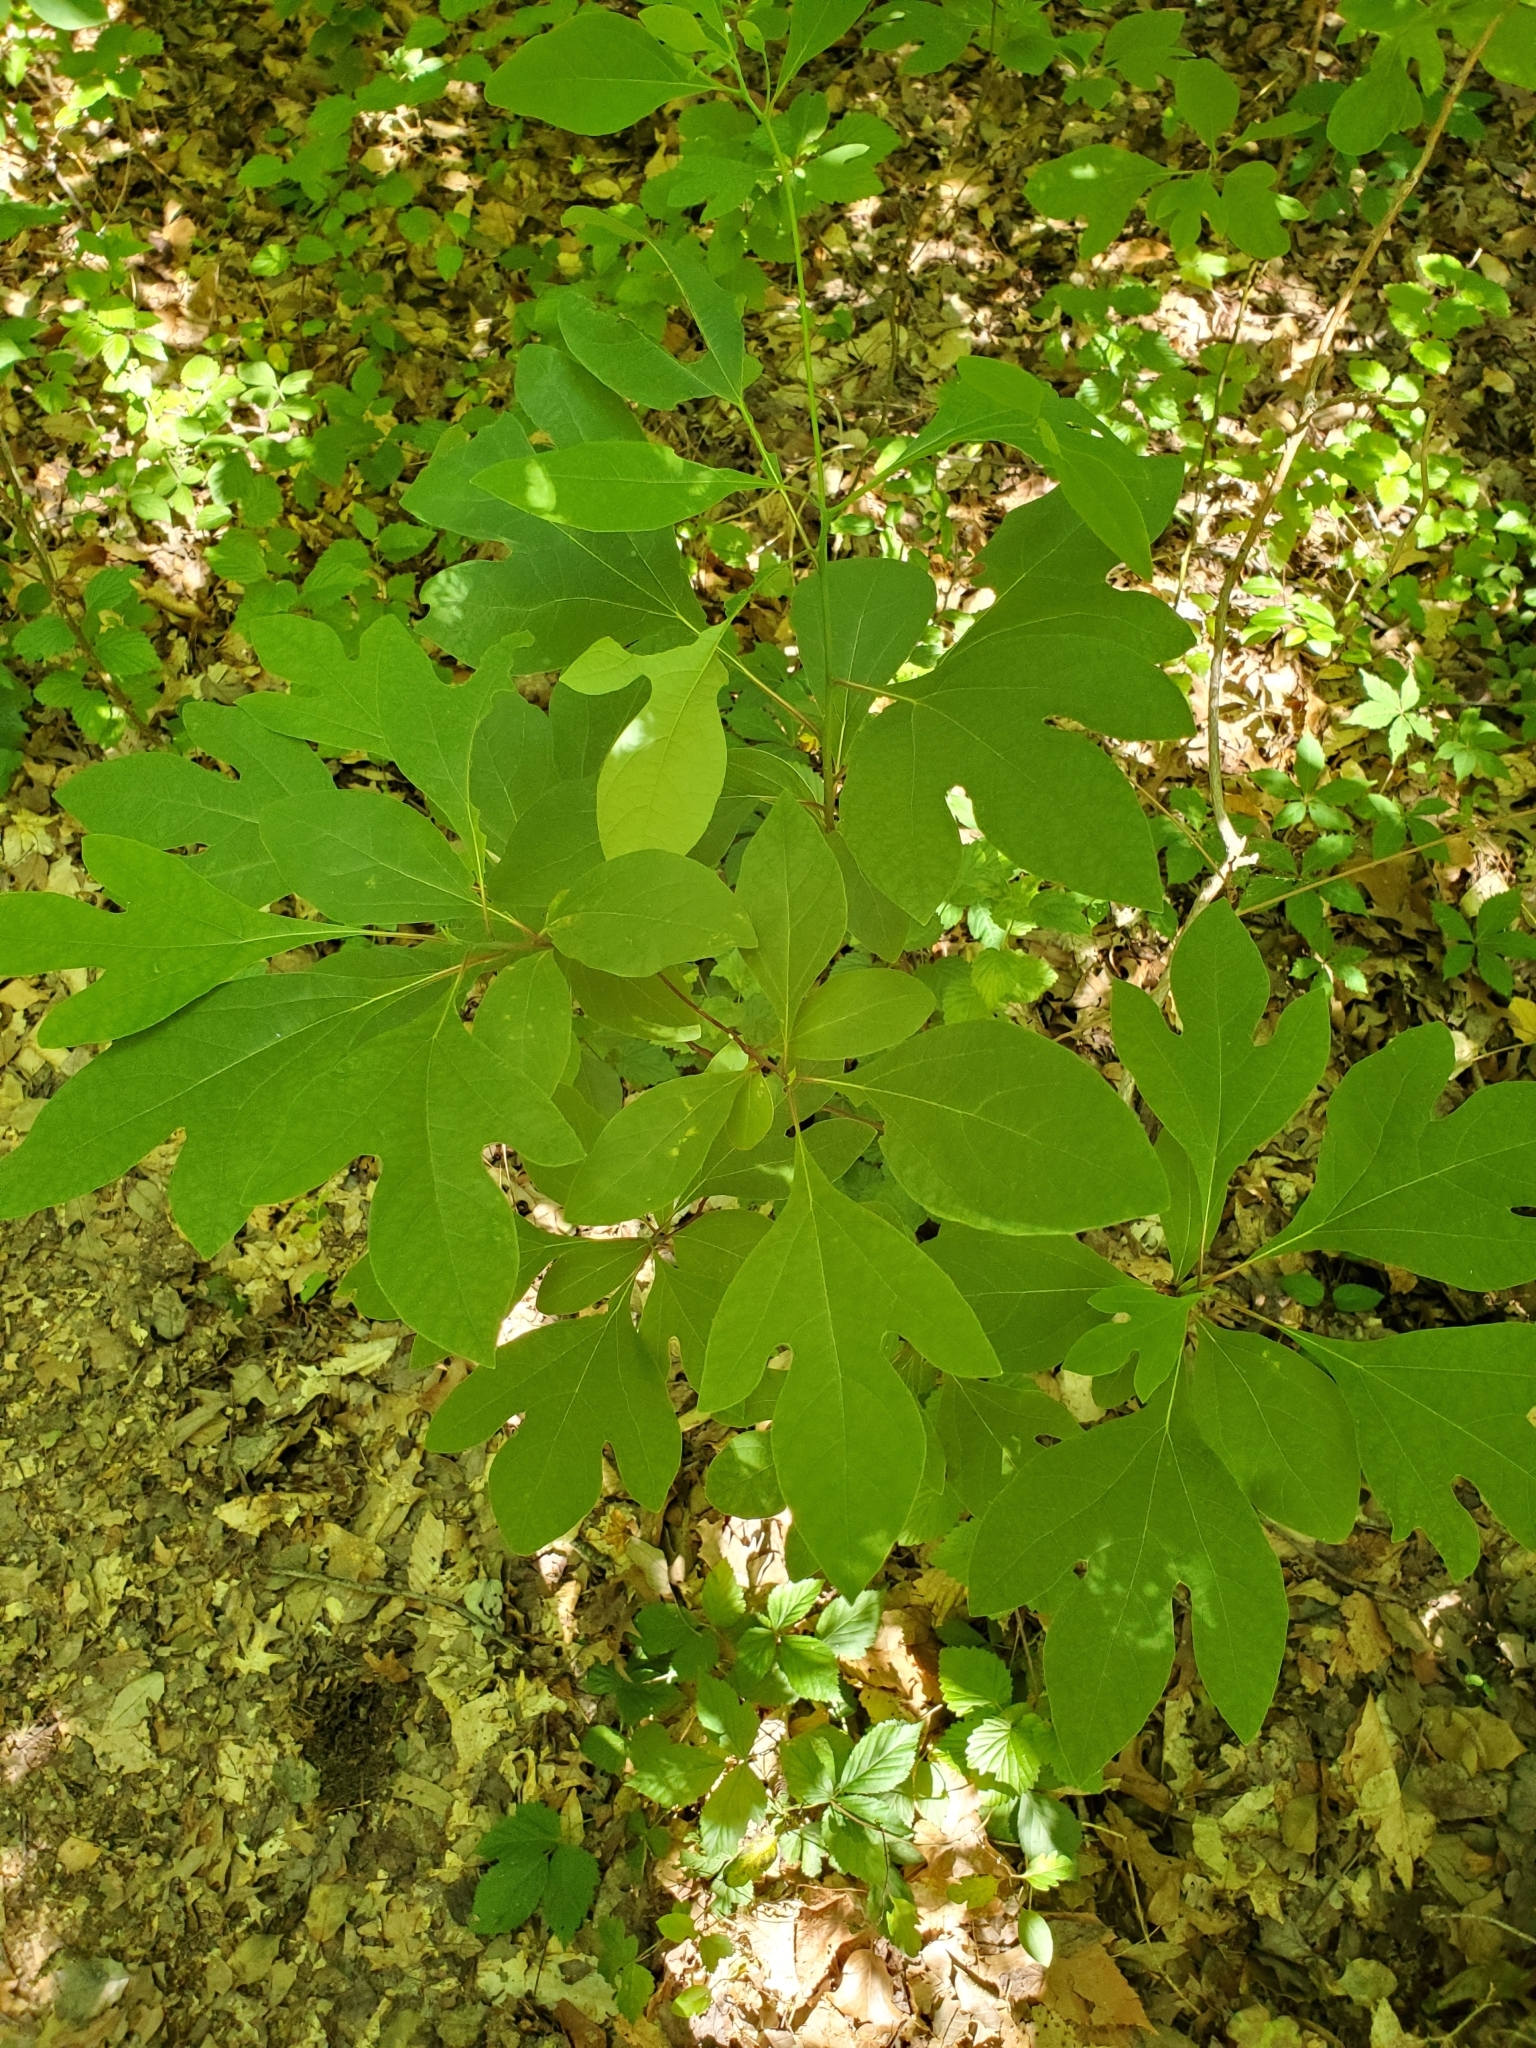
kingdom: Plantae
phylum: Tracheophyta
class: Magnoliopsida
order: Laurales
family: Lauraceae
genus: Sassafras
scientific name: Sassafras albidum
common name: Sassafras
